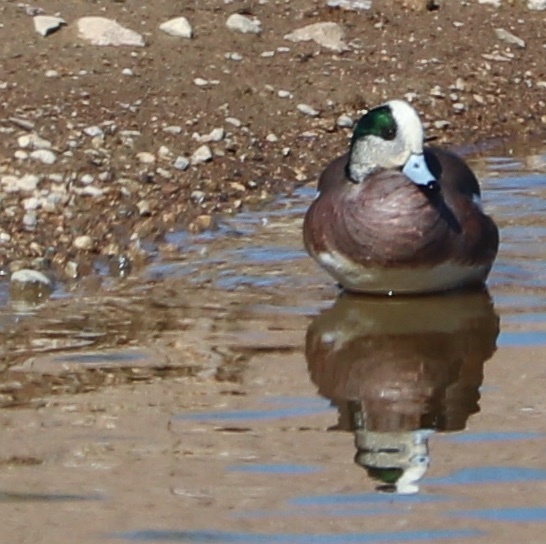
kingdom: Animalia
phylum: Chordata
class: Aves
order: Anseriformes
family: Anatidae
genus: Mareca
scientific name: Mareca americana
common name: American wigeon
